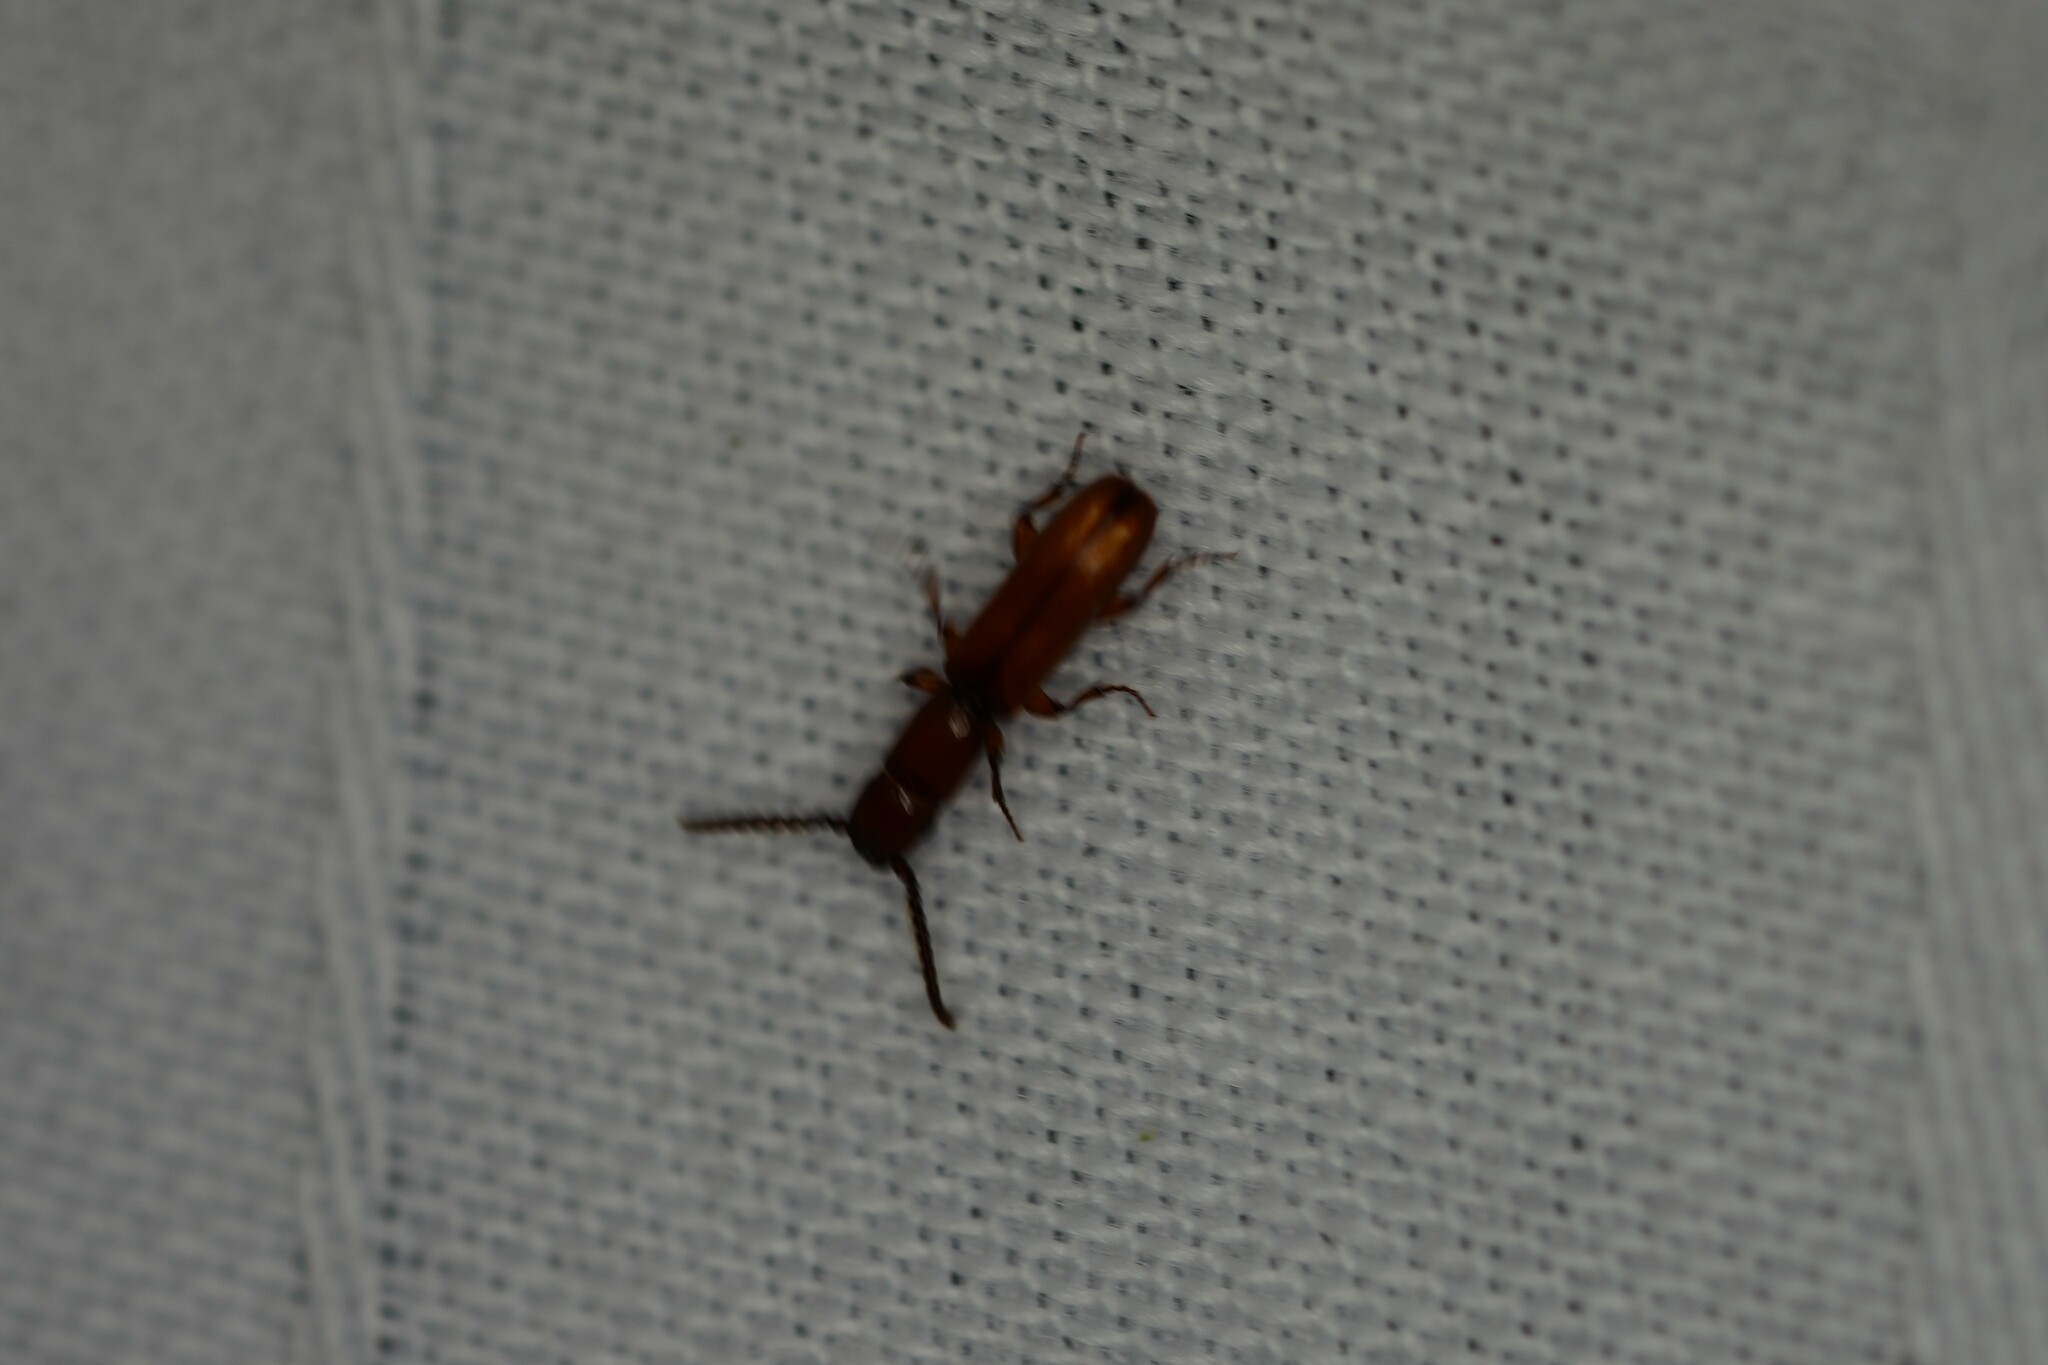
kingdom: Animalia
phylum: Arthropoda
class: Insecta
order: Coleoptera
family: Passandridae
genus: Taphroscelidia
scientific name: Taphroscelidia linearis
